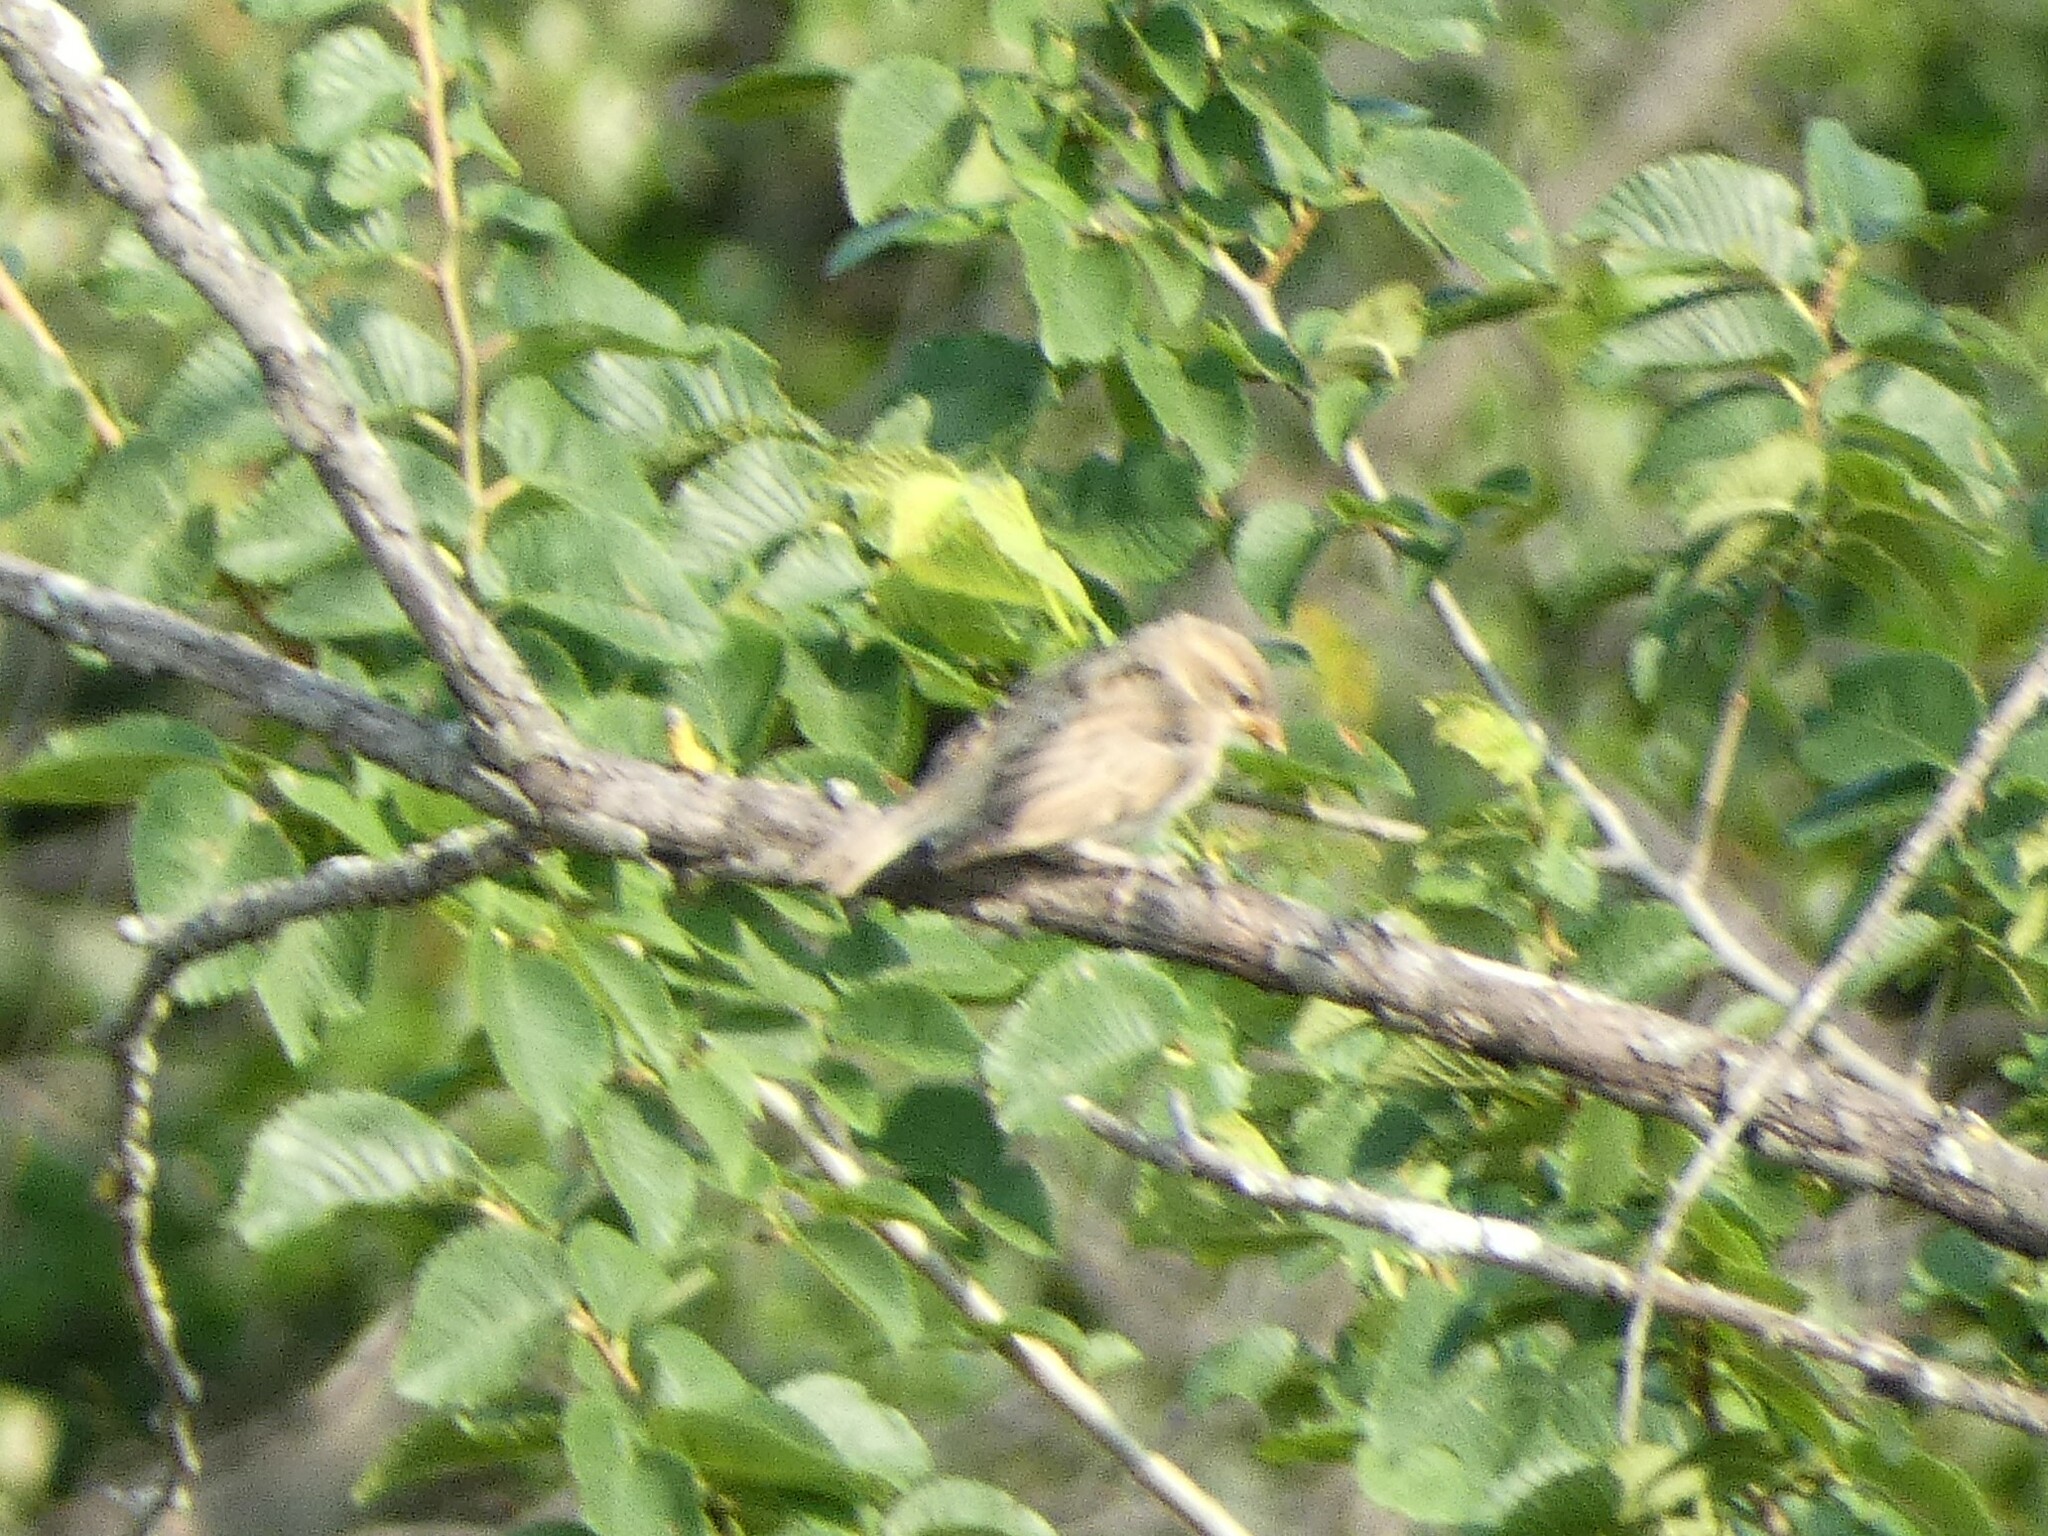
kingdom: Animalia
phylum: Chordata
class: Aves
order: Passeriformes
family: Passeridae
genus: Passer
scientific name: Passer domesticus
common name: House sparrow
